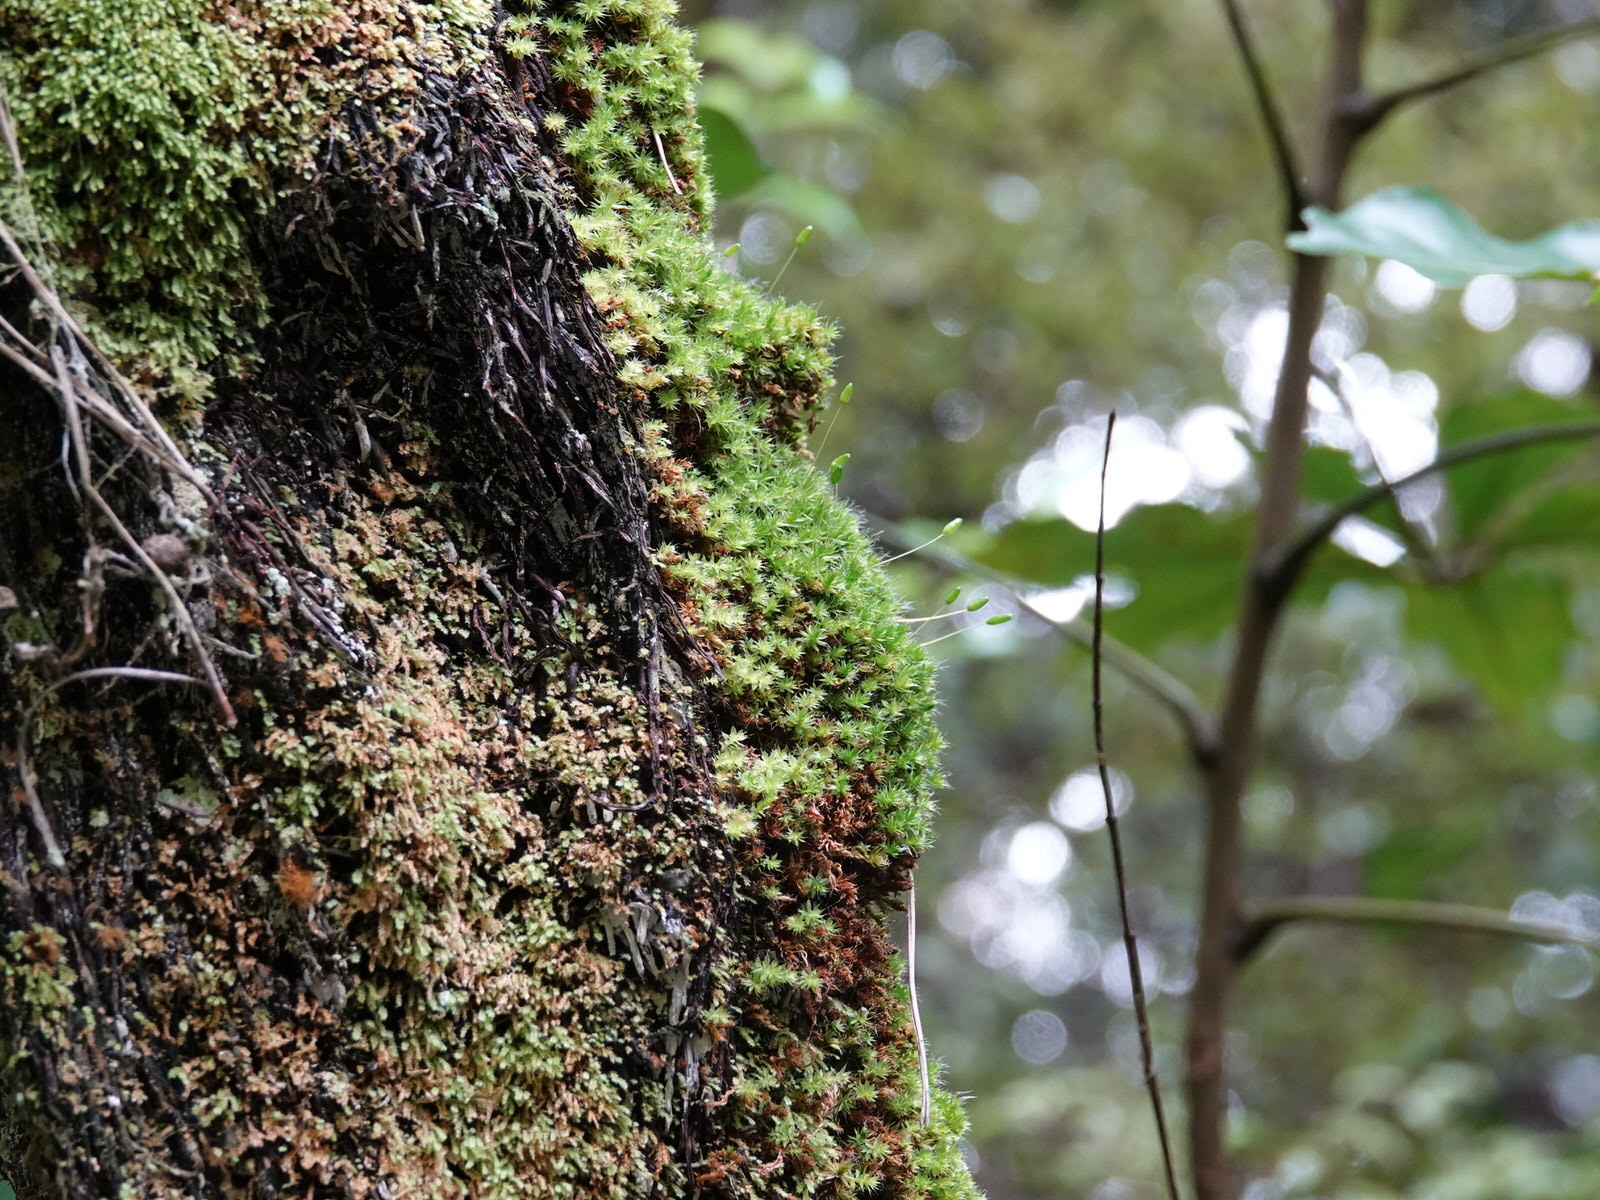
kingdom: Plantae
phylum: Bryophyta
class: Bryopsida
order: Bryales
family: Leptostomataceae
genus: Leptostomum
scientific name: Leptostomum macrocarpon
